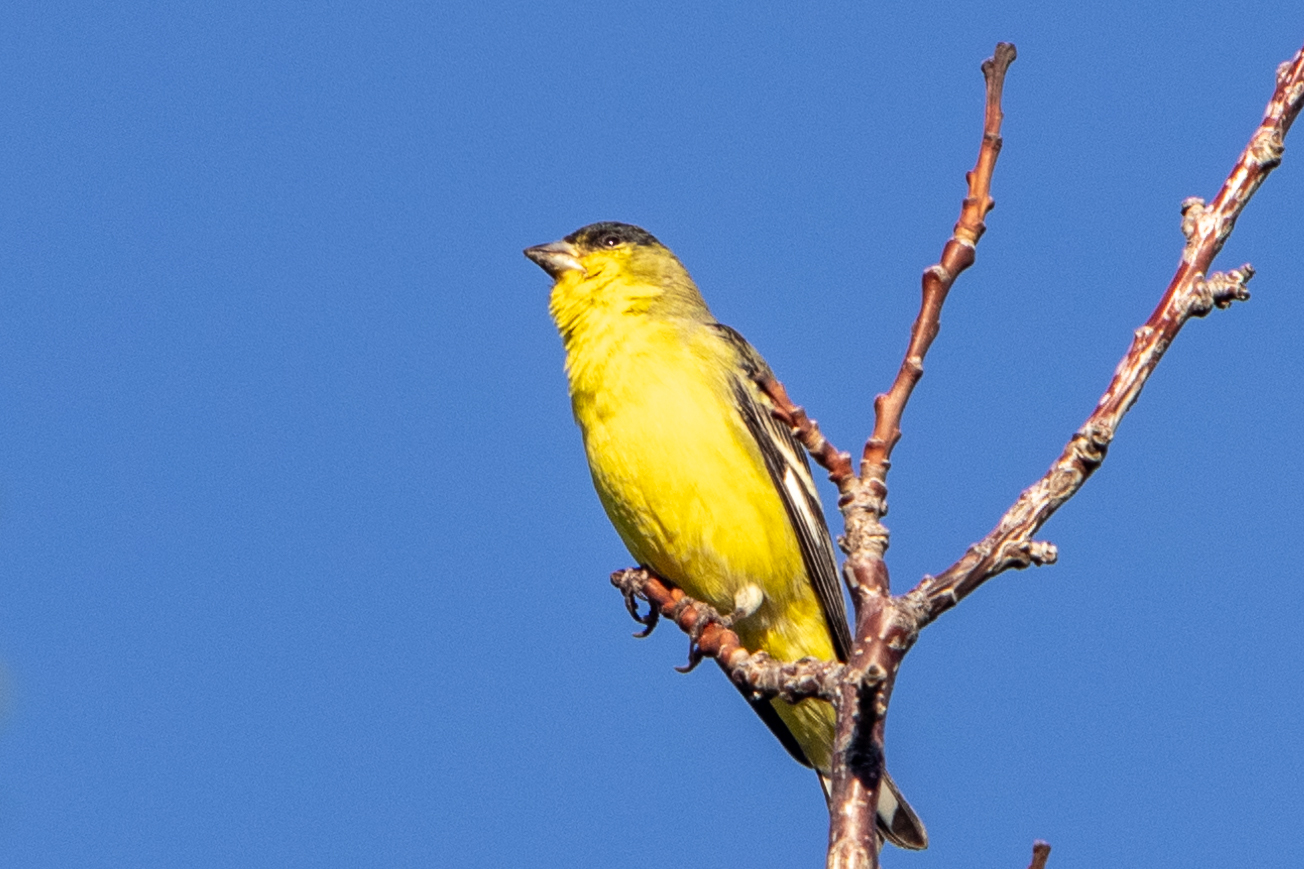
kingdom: Animalia
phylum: Chordata
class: Aves
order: Passeriformes
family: Fringillidae
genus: Spinus
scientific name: Spinus psaltria
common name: Lesser goldfinch
